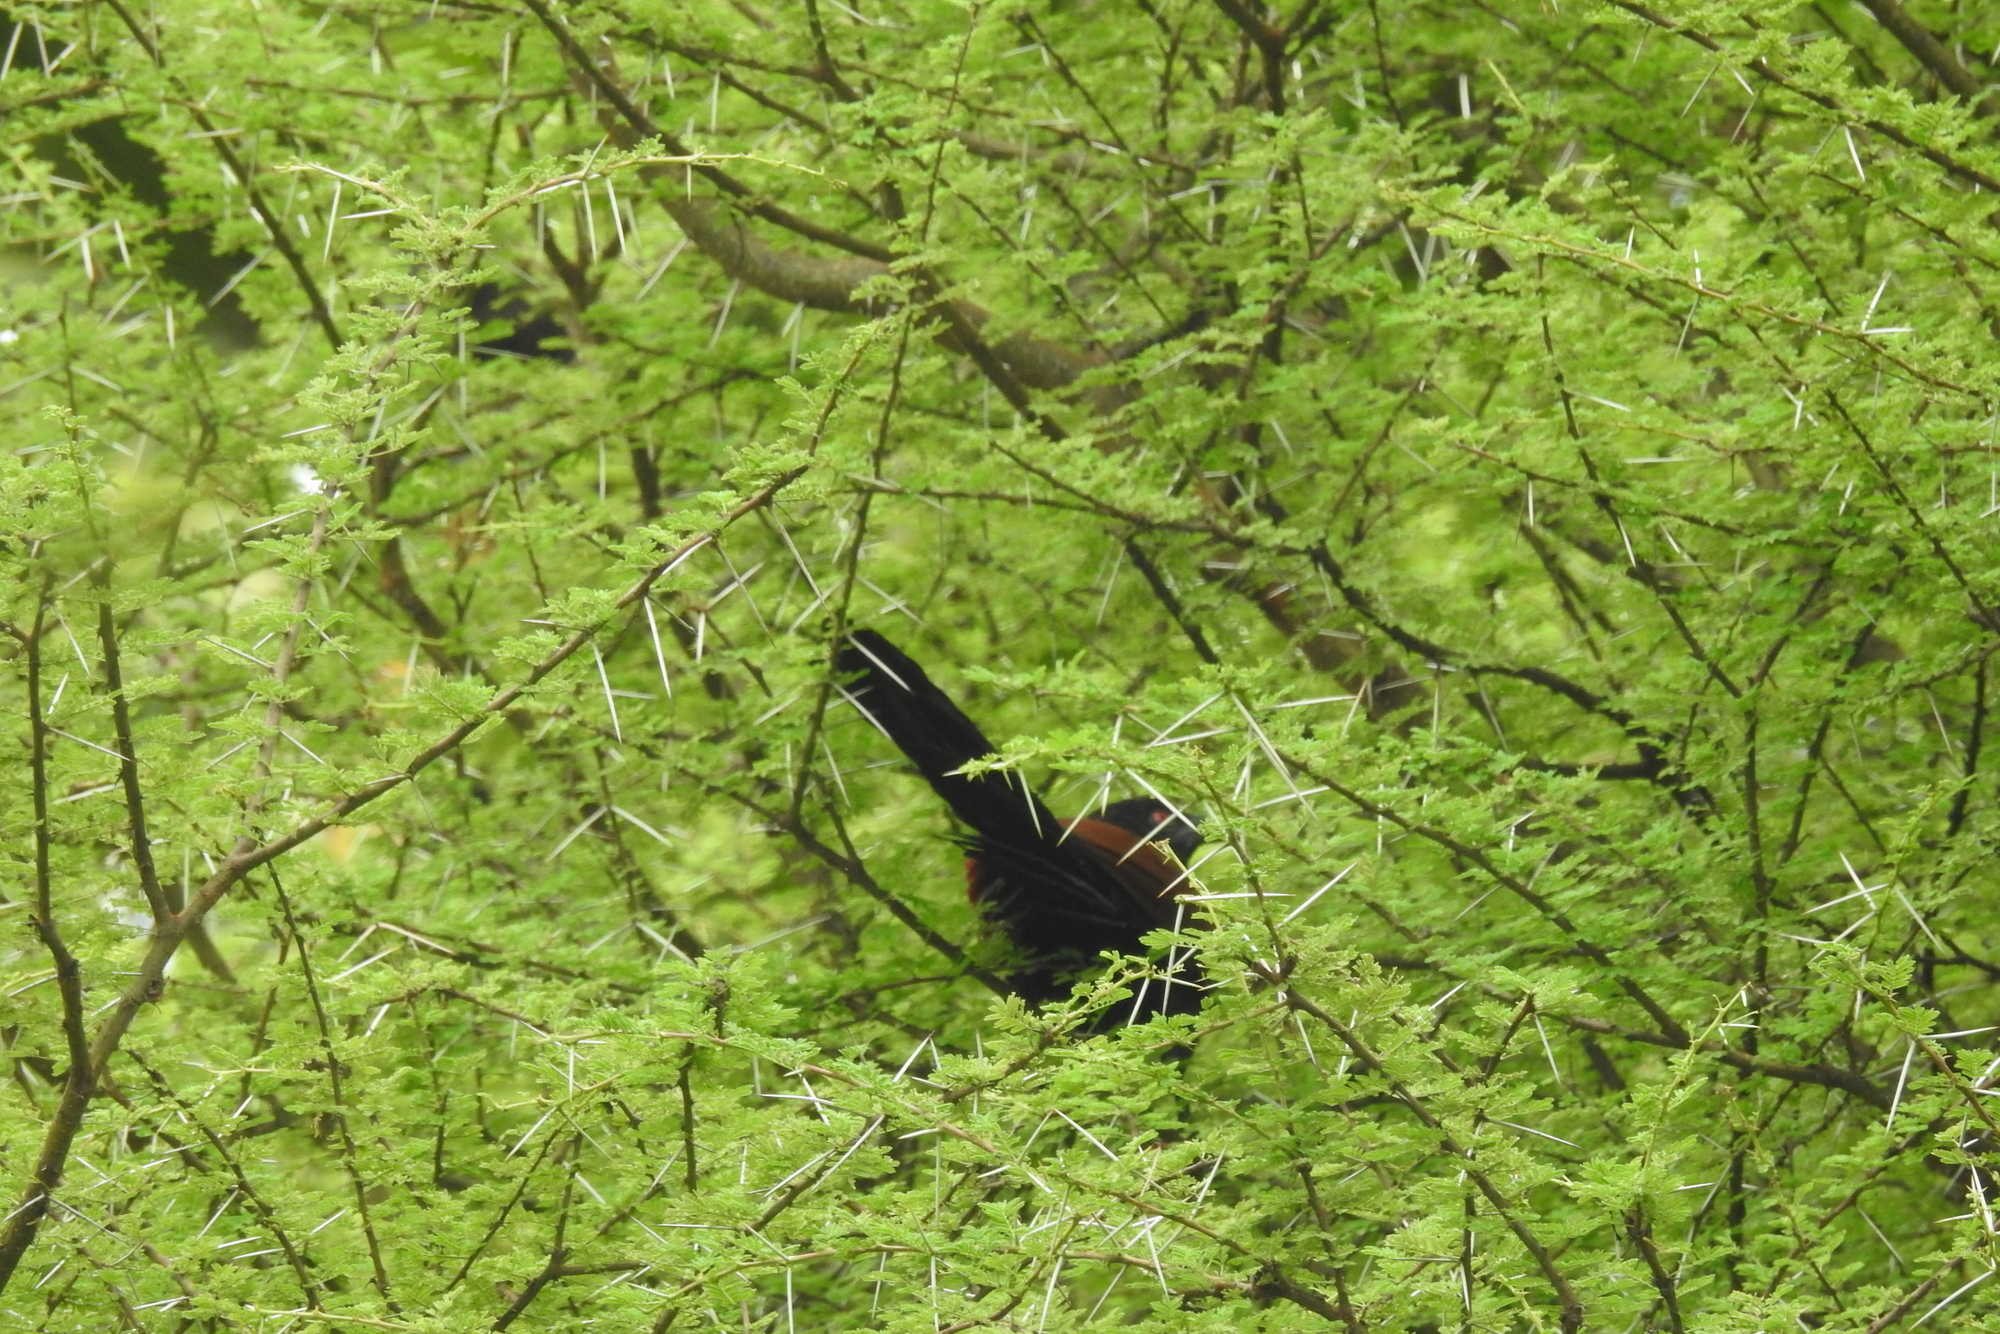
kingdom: Animalia
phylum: Chordata
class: Aves
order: Cuculiformes
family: Cuculidae
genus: Centropus
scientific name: Centropus sinensis
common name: Greater coucal
